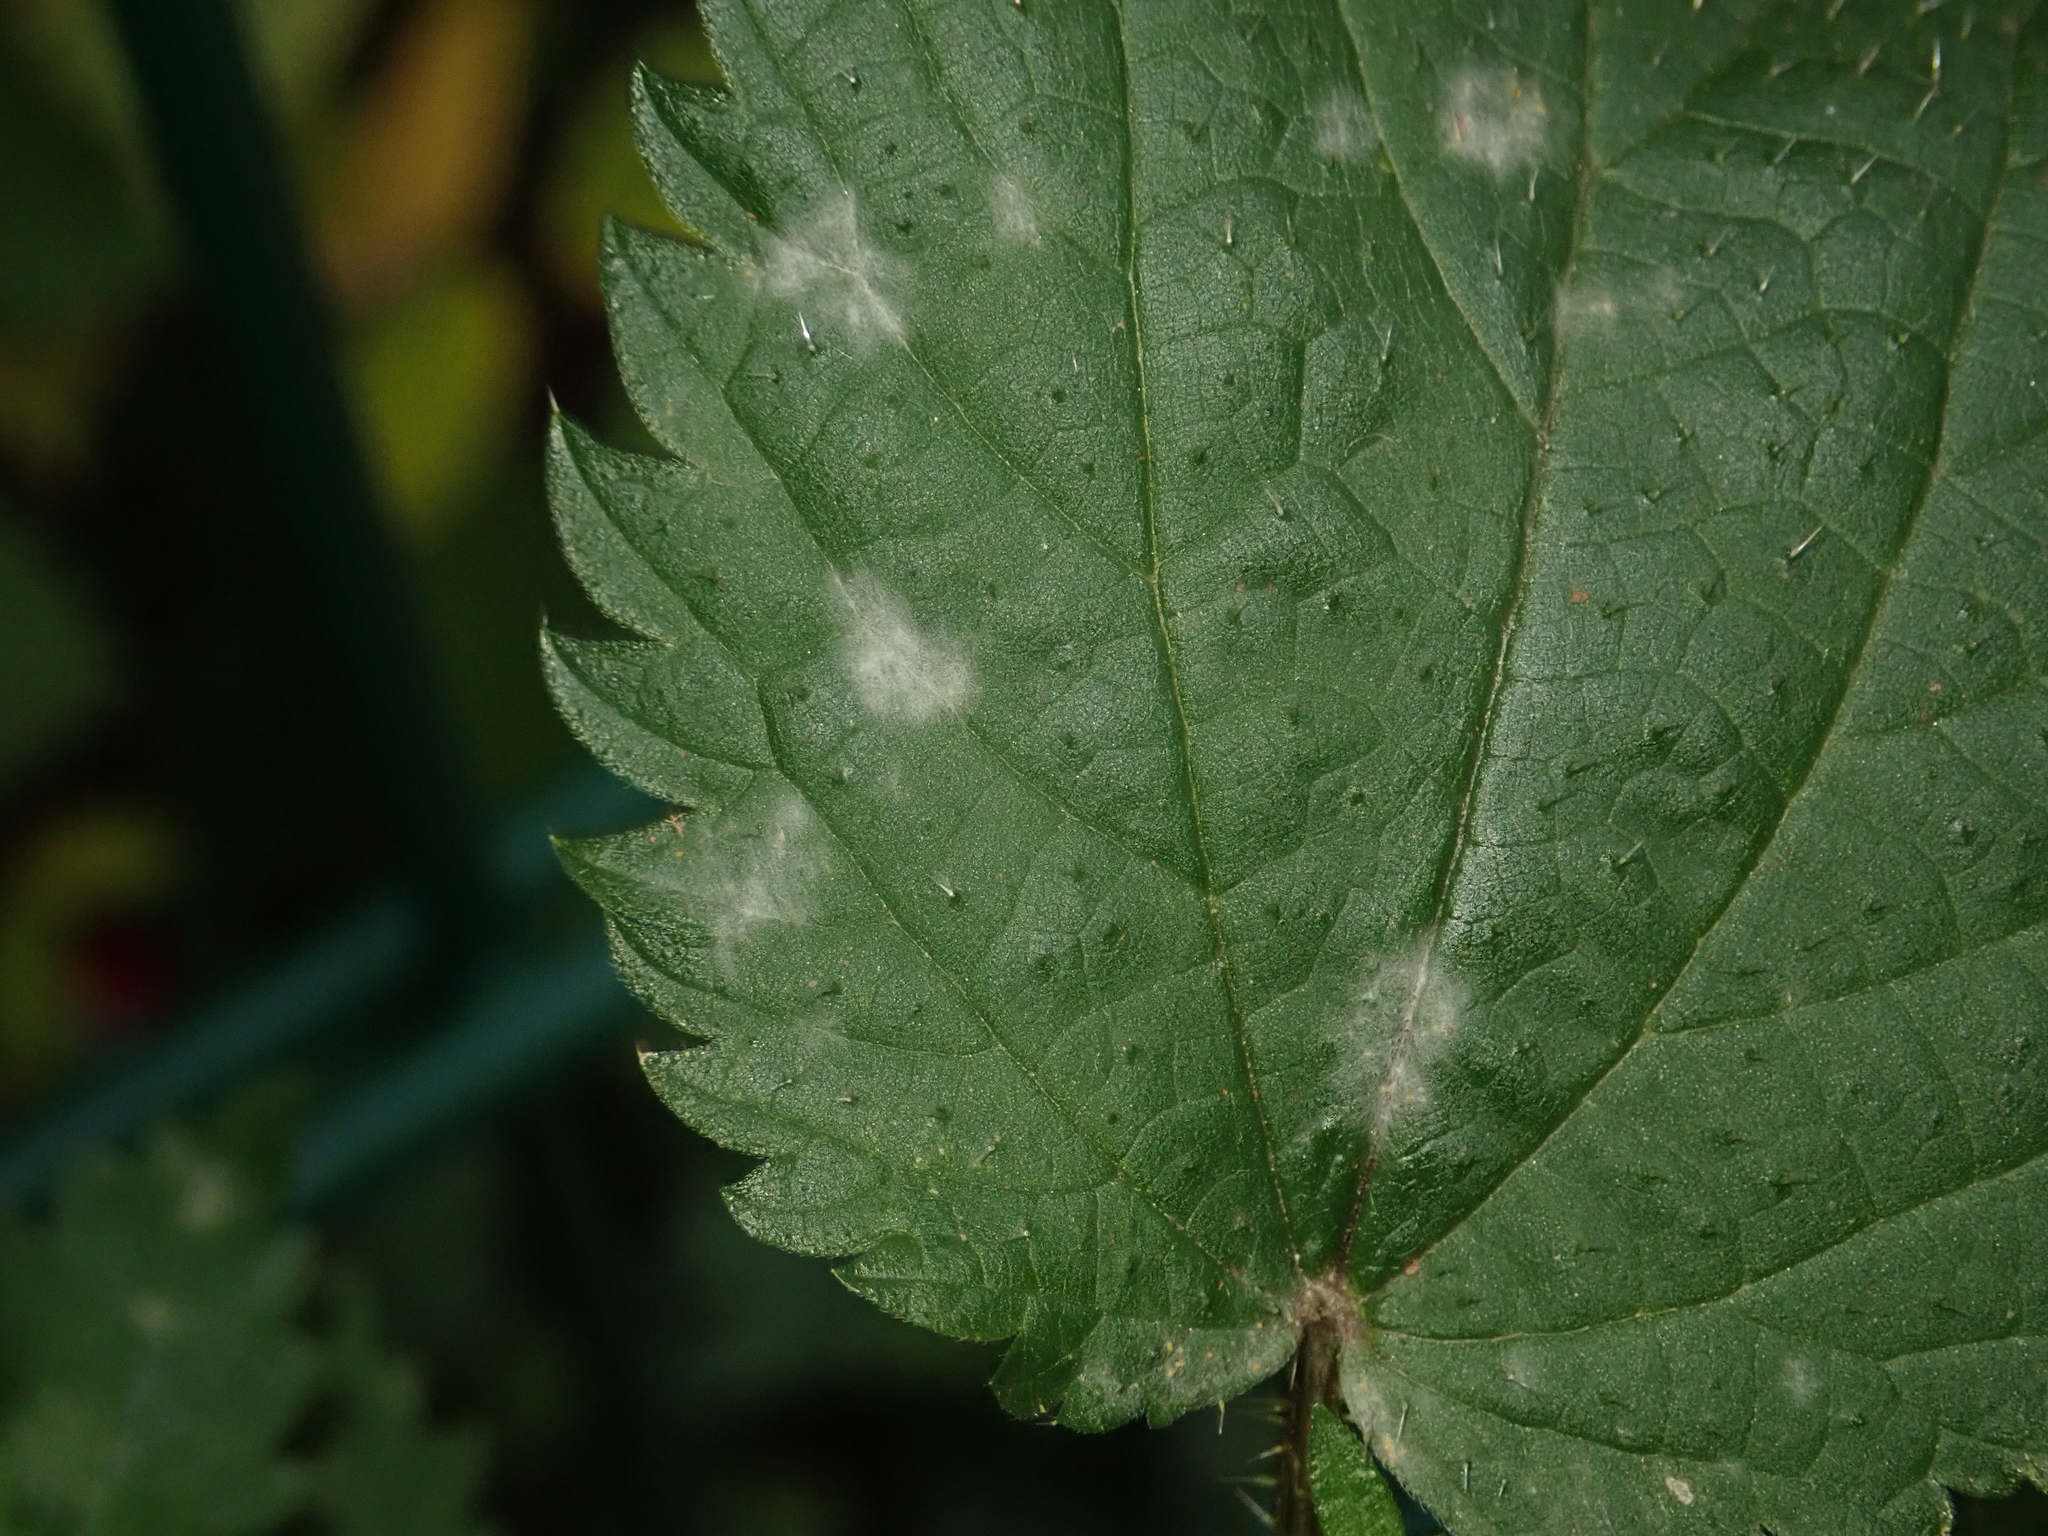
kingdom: Fungi
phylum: Ascomycota
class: Leotiomycetes
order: Helotiales
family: Erysiphaceae
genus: Erysiphe
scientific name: Erysiphe urticae
